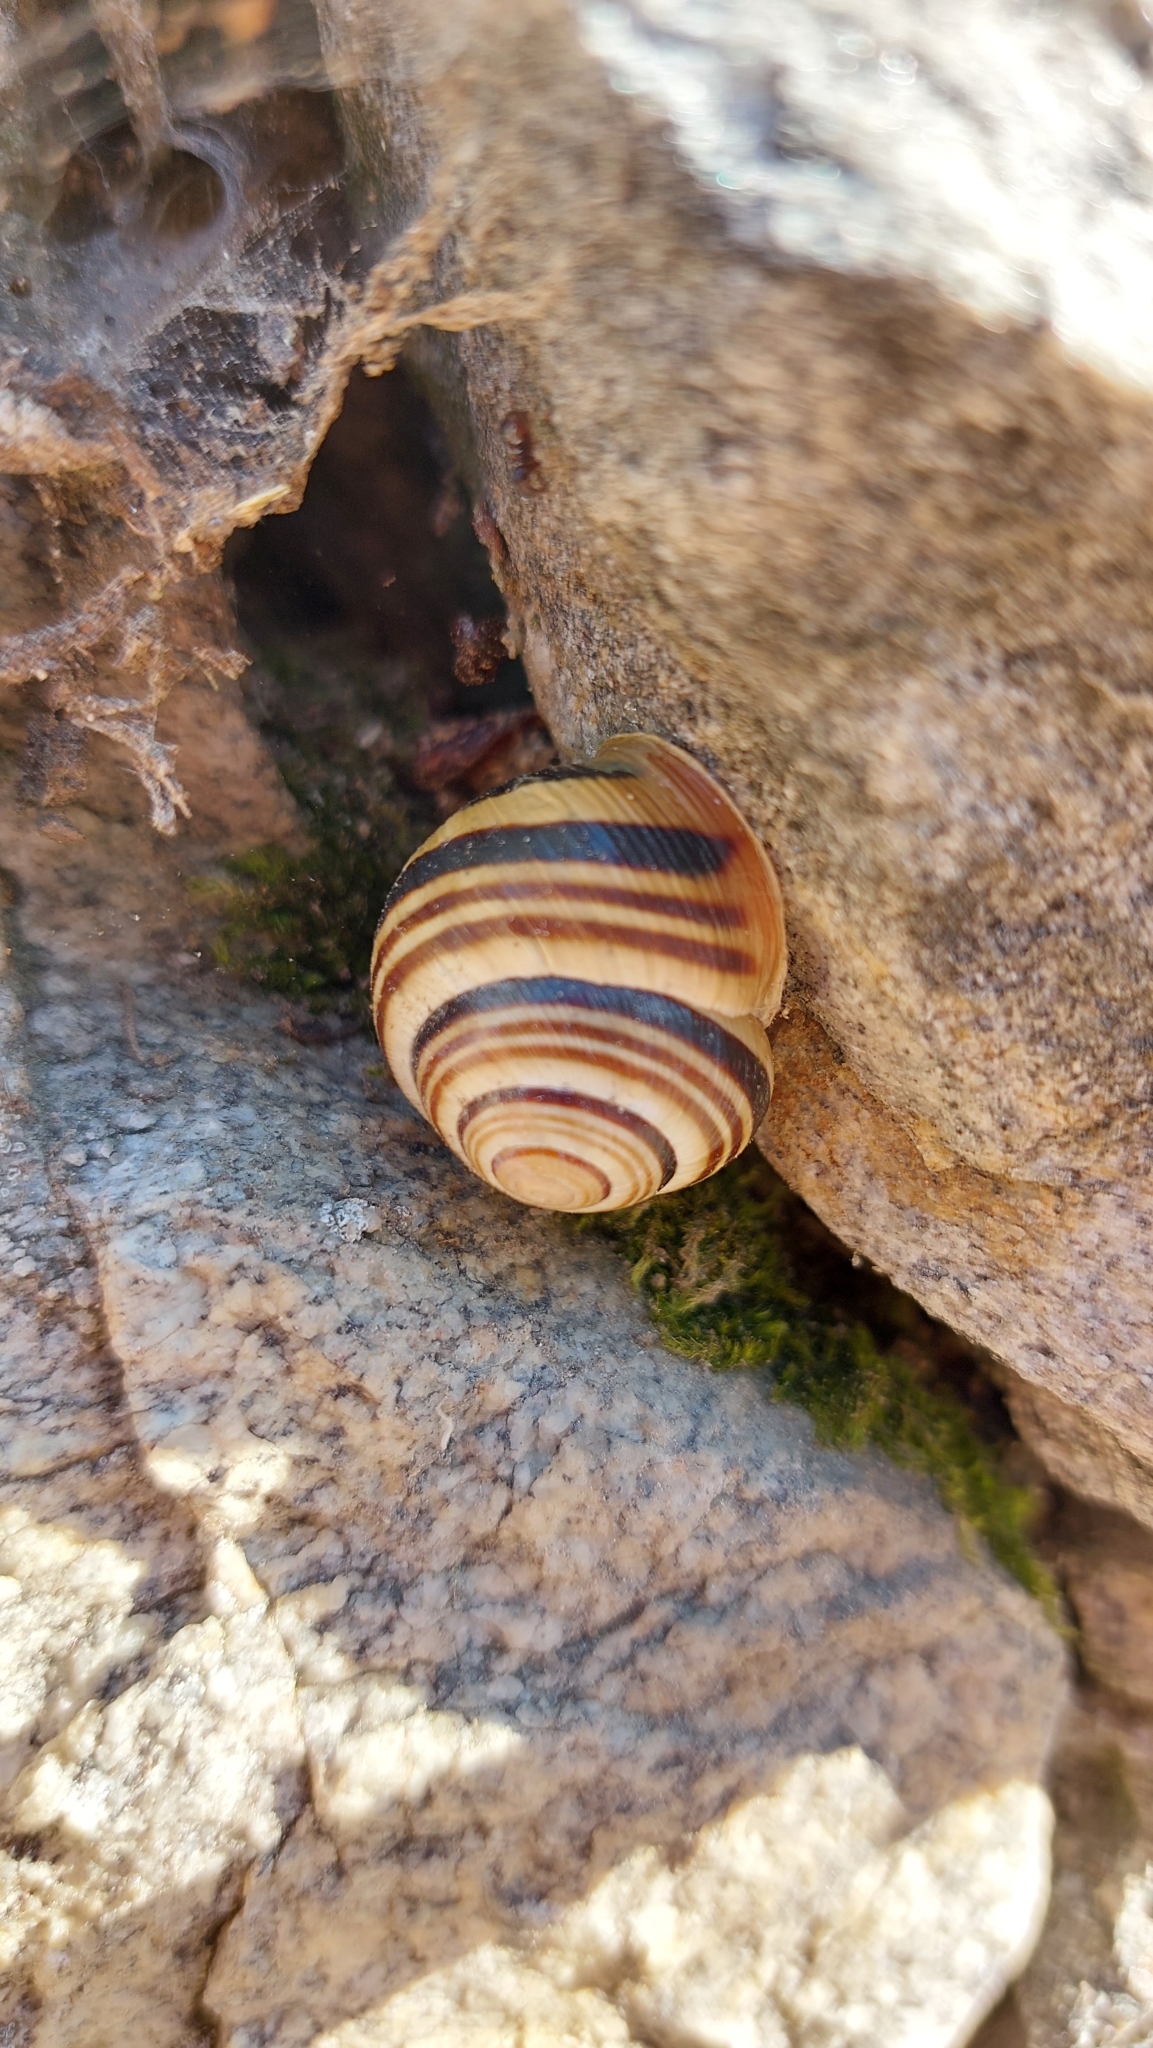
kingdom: Animalia
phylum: Mollusca
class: Gastropoda
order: Stylommatophora
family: Helicidae
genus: Caucasotachea
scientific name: Caucasotachea vindobonensis
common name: European helicid land snail
